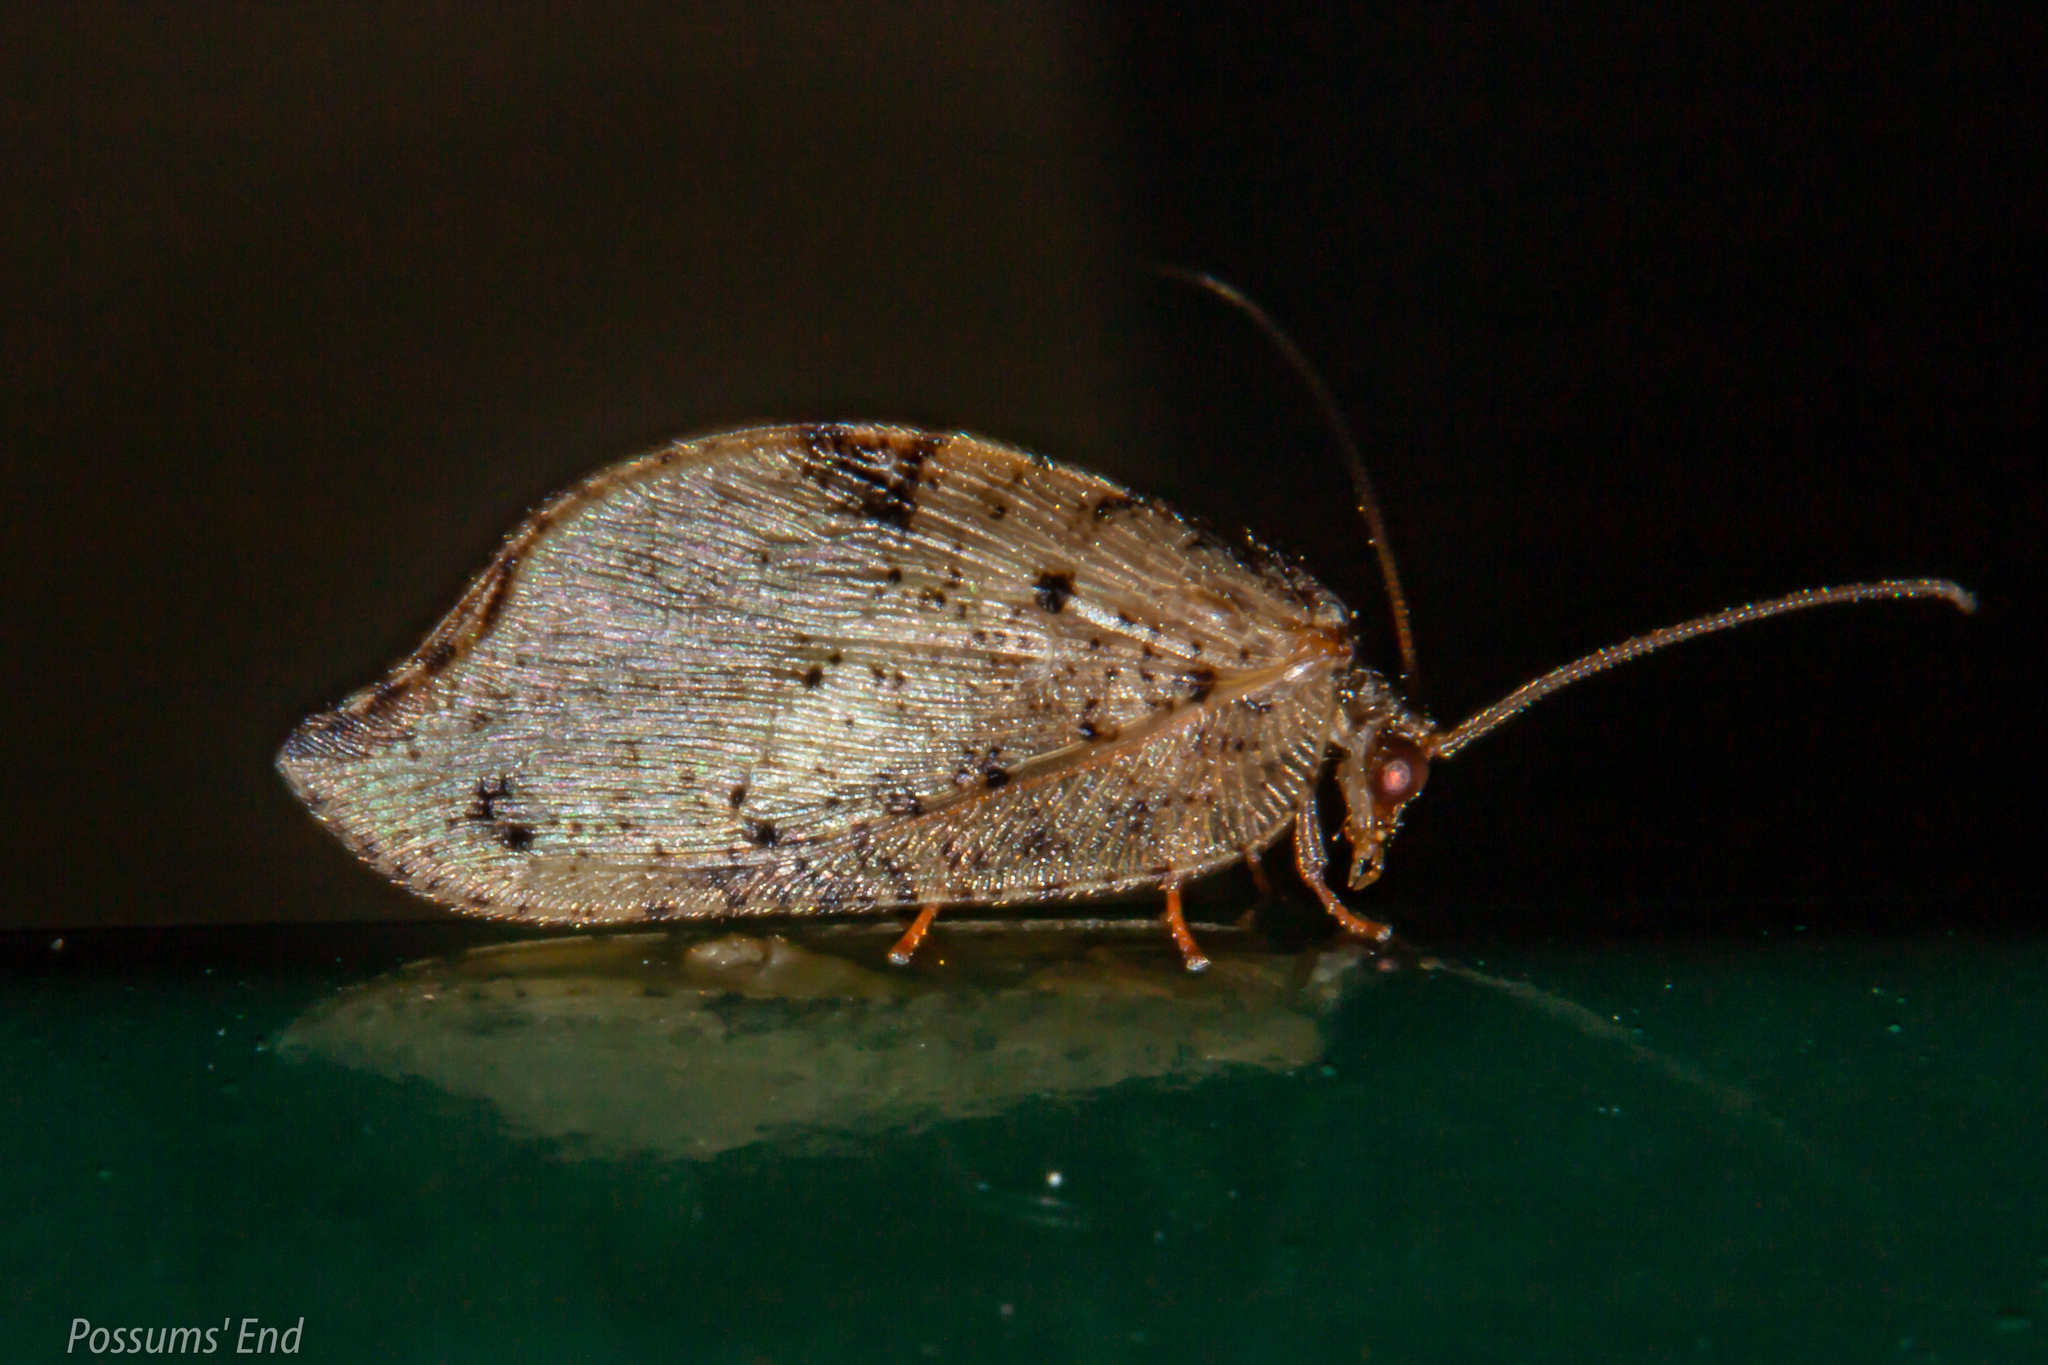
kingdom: Animalia
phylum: Arthropoda
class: Insecta
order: Neuroptera
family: Hemerobiidae
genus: Drepanacra
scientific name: Drepanacra binocula
